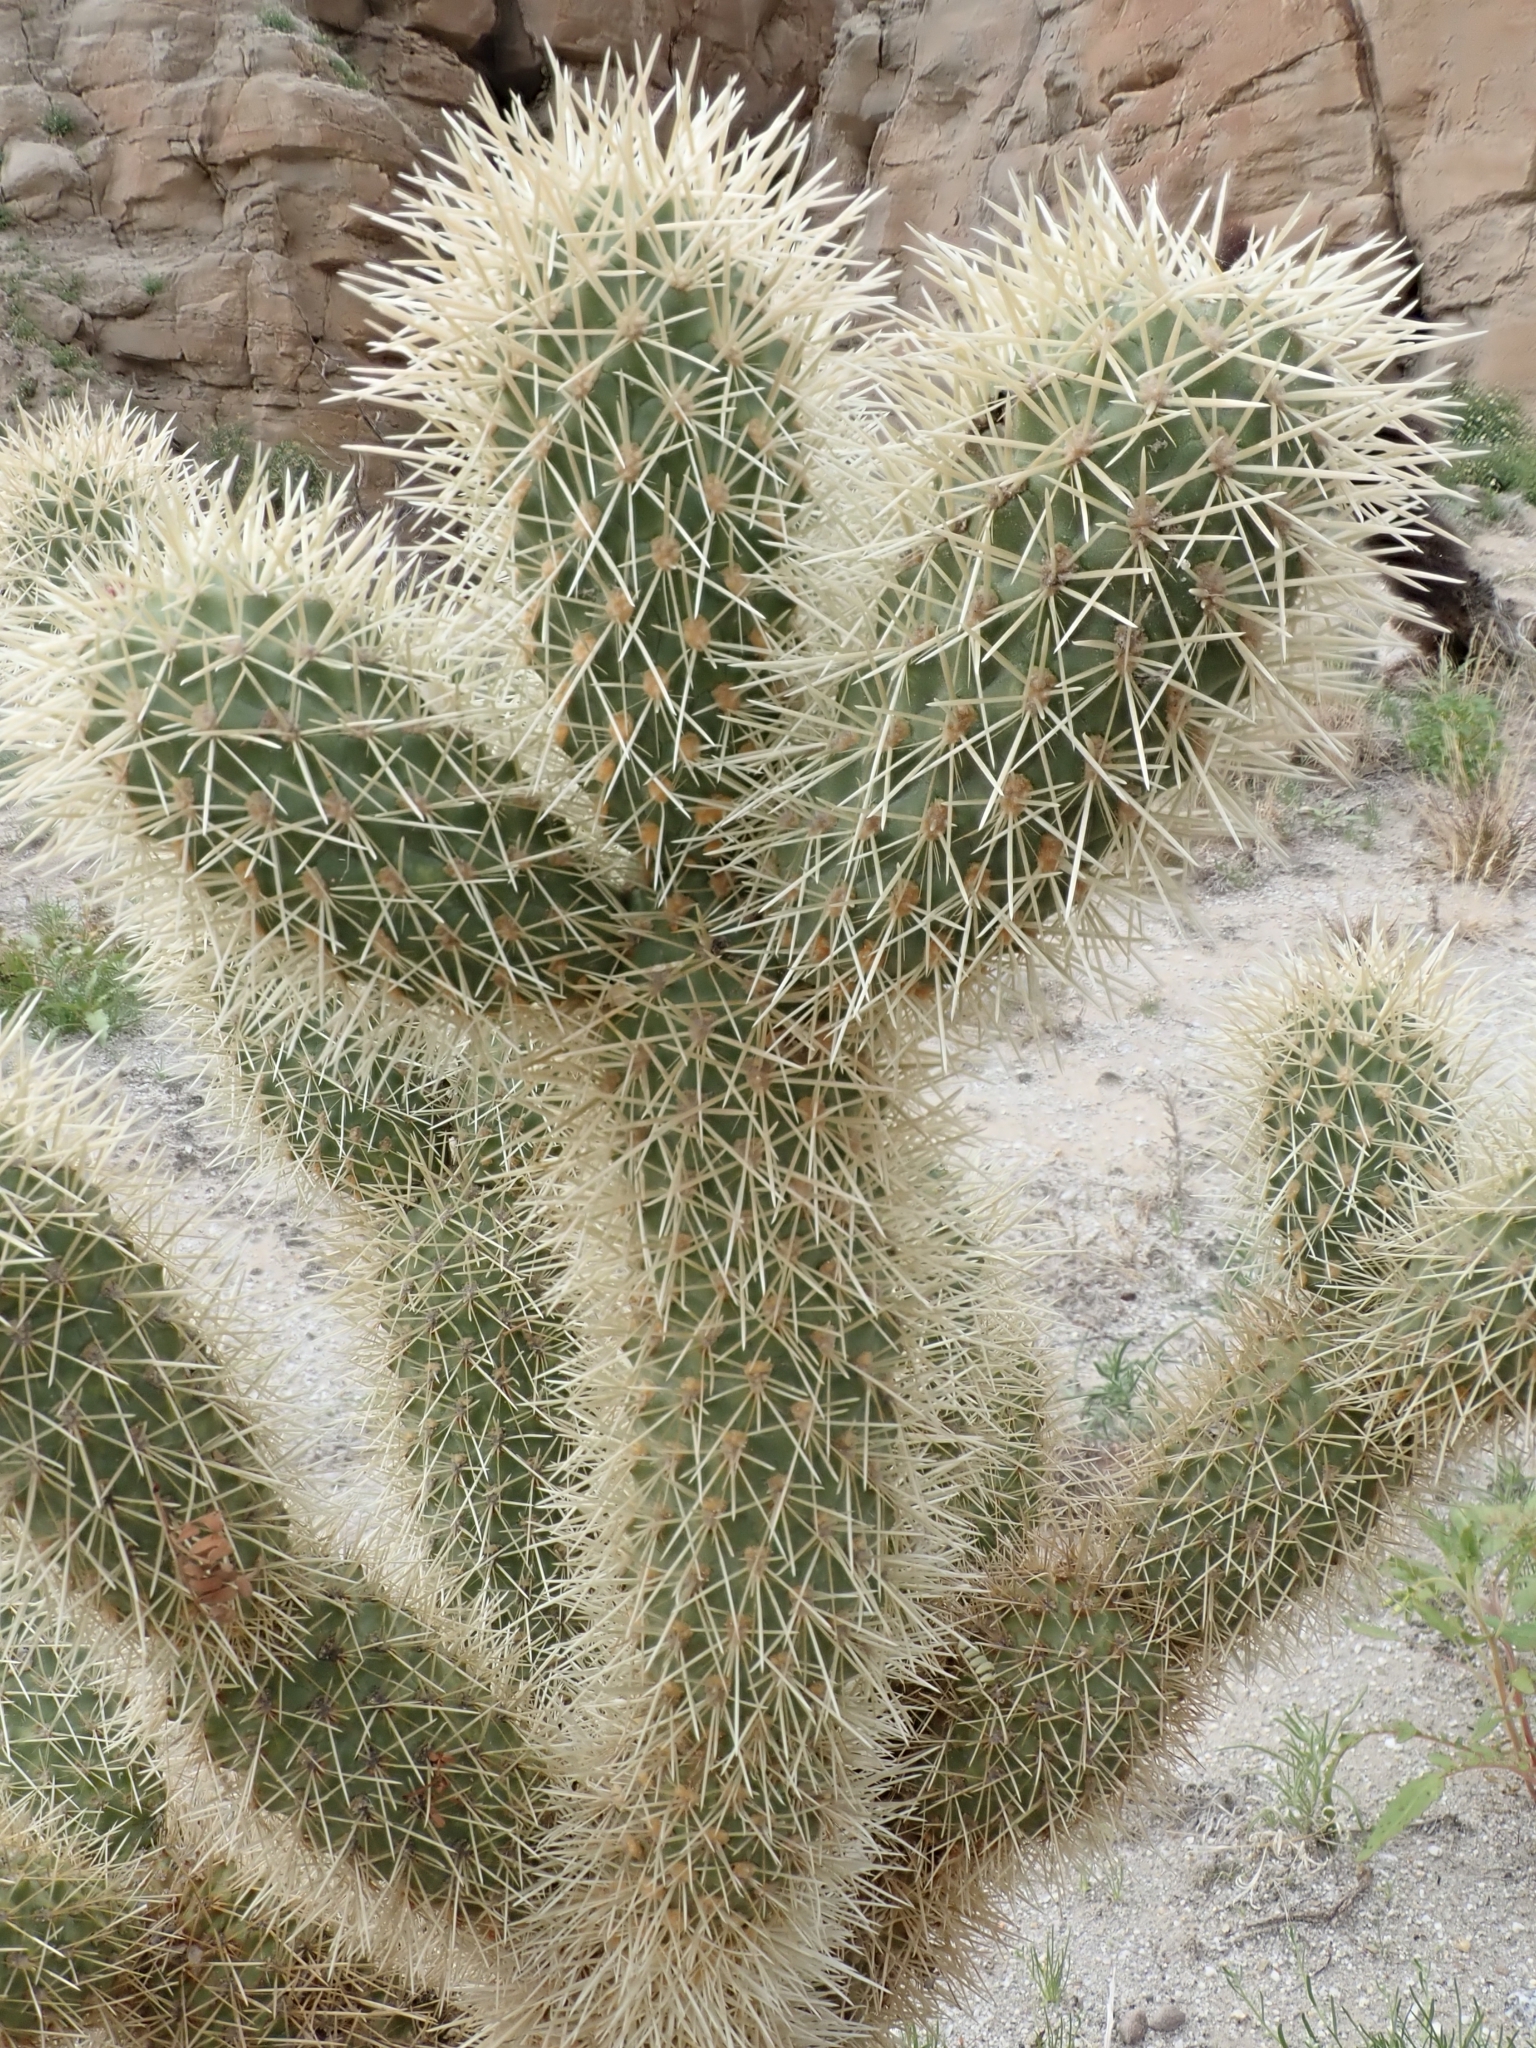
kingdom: Plantae
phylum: Tracheophyta
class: Magnoliopsida
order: Caryophyllales
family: Cactaceae
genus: Cylindropuntia
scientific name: Cylindropuntia fosbergii
